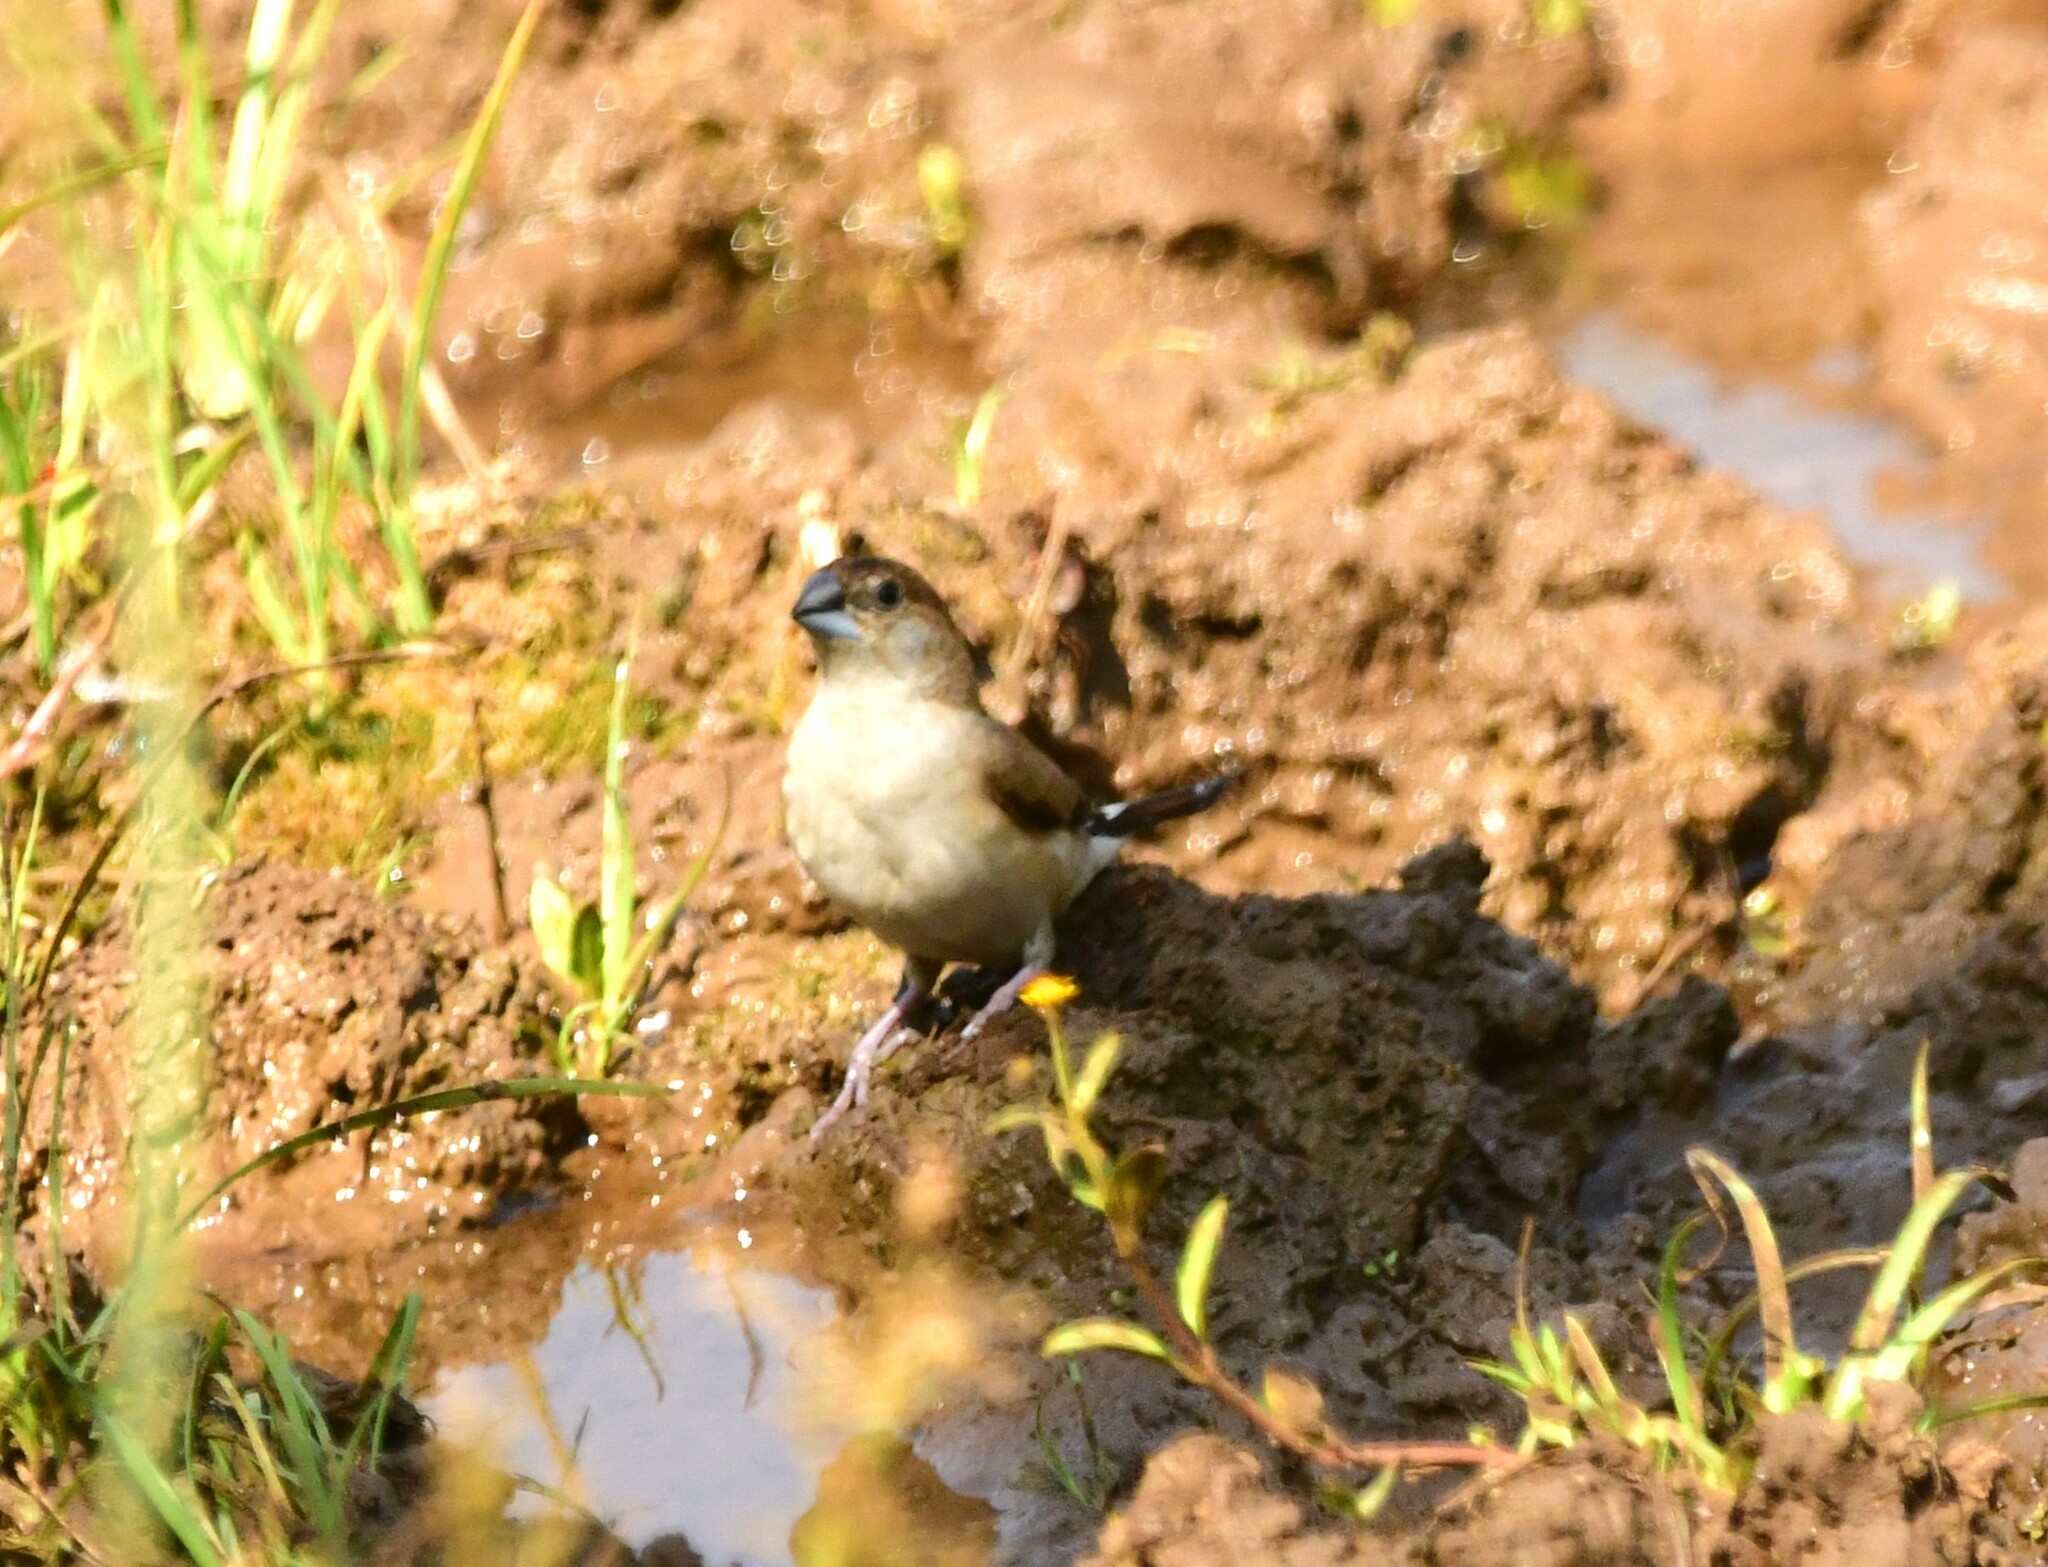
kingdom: Animalia
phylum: Chordata
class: Aves
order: Passeriformes
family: Estrildidae
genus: Euodice
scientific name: Euodice malabarica
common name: Indian silverbill
